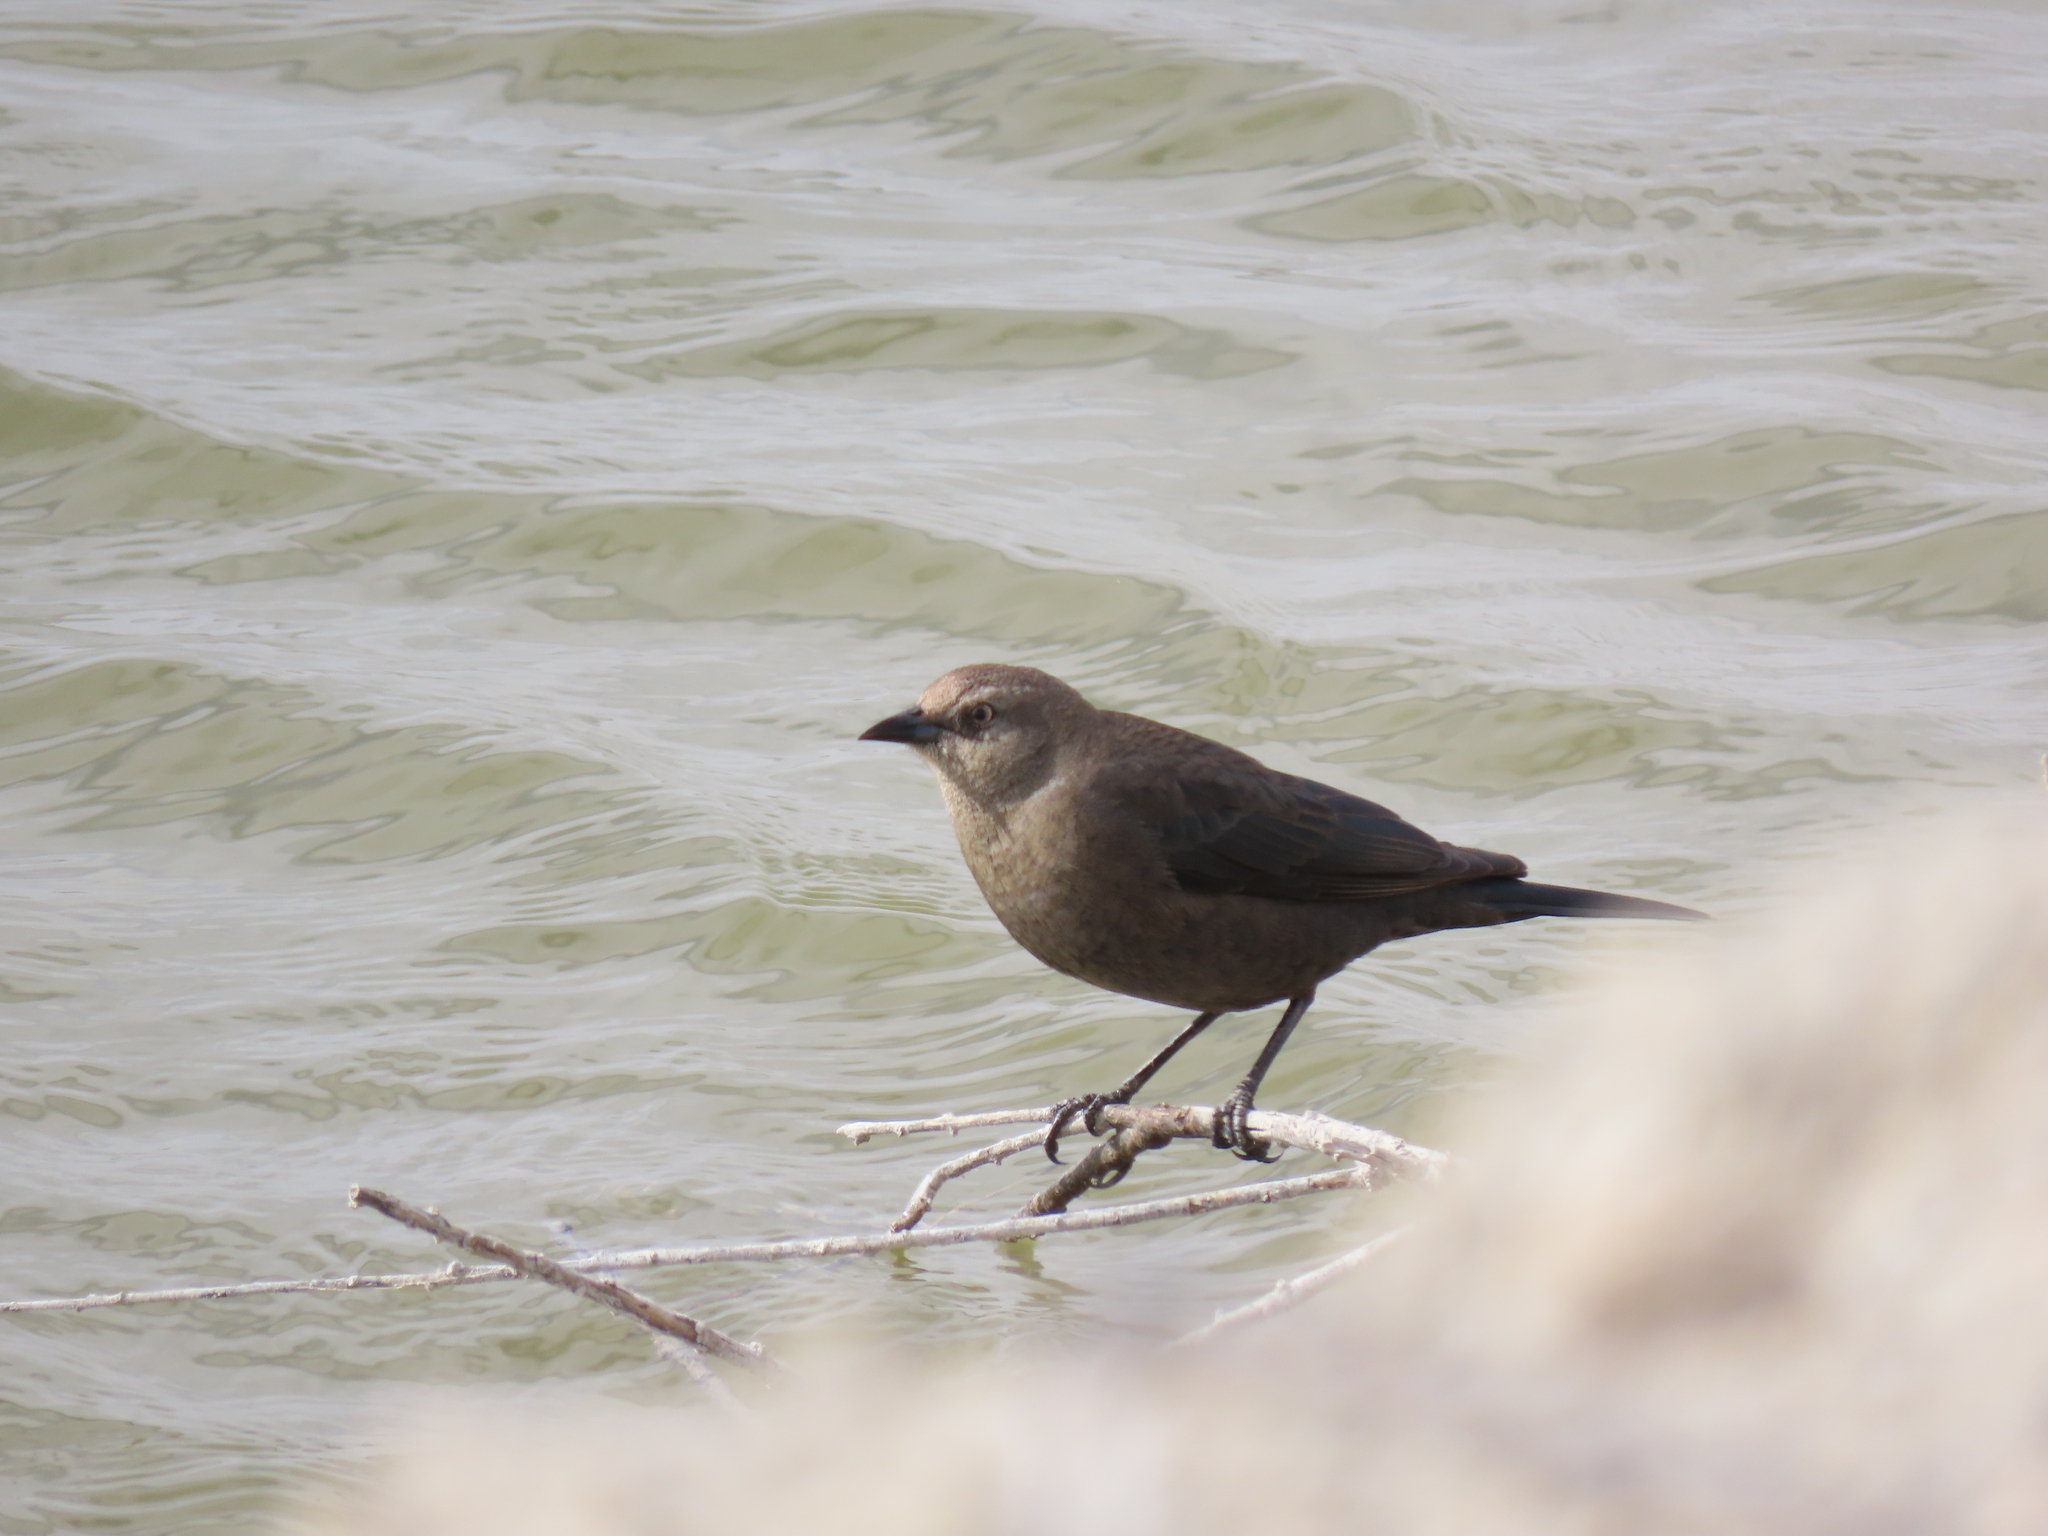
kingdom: Animalia
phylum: Chordata
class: Aves
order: Passeriformes
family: Icteridae
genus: Euphagus
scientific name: Euphagus cyanocephalus
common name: Brewer's blackbird
